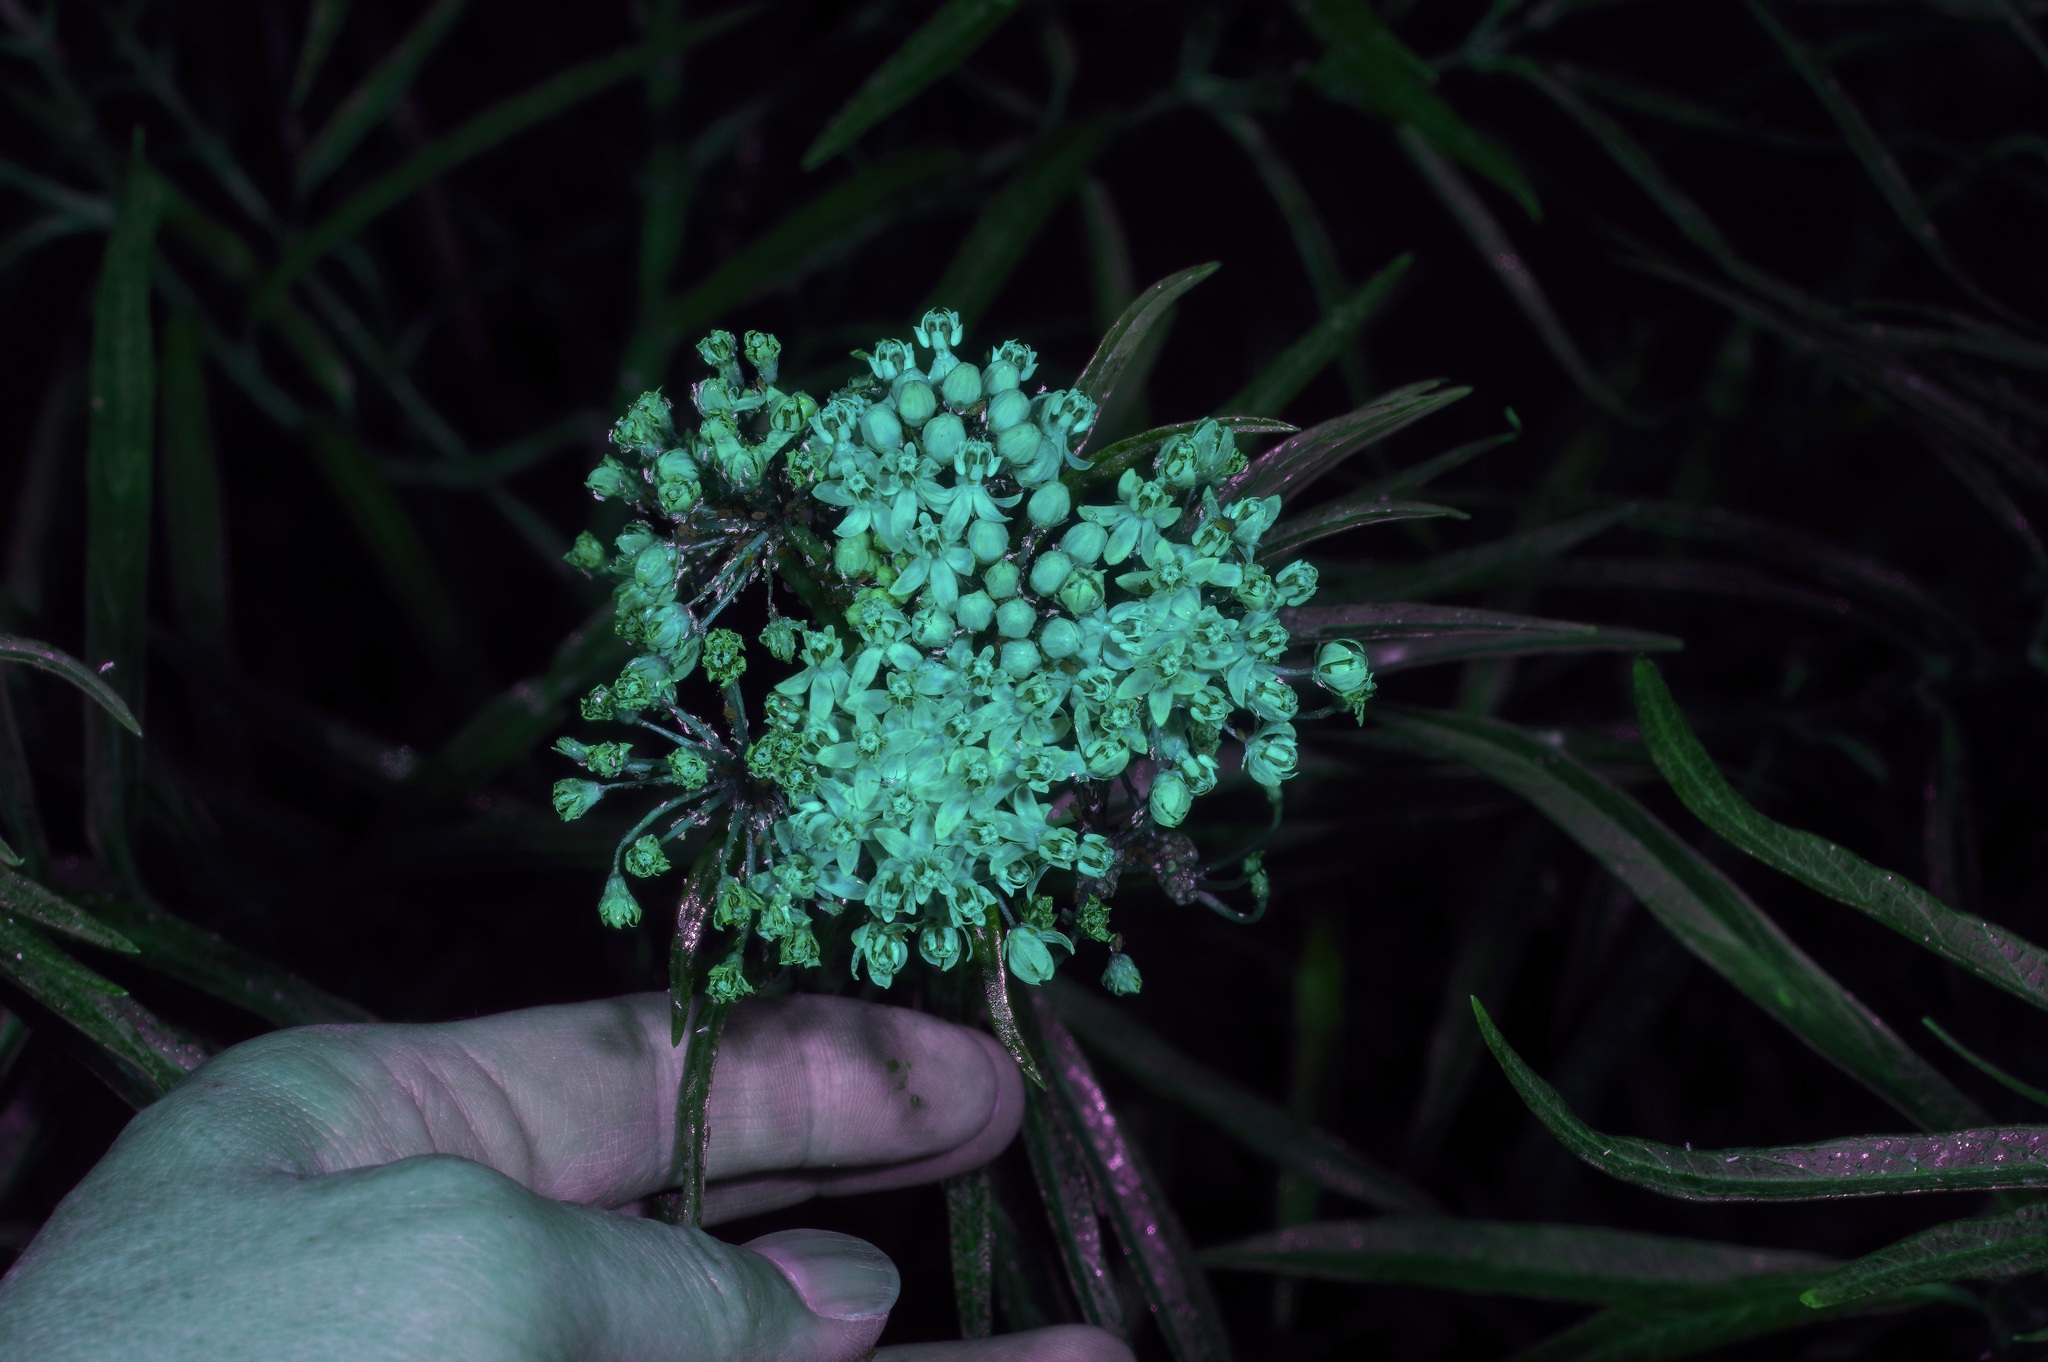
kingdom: Plantae
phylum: Tracheophyta
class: Magnoliopsida
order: Gentianales
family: Apocynaceae
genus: Asclepias
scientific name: Asclepias incarnata
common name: Swamp milkweed
